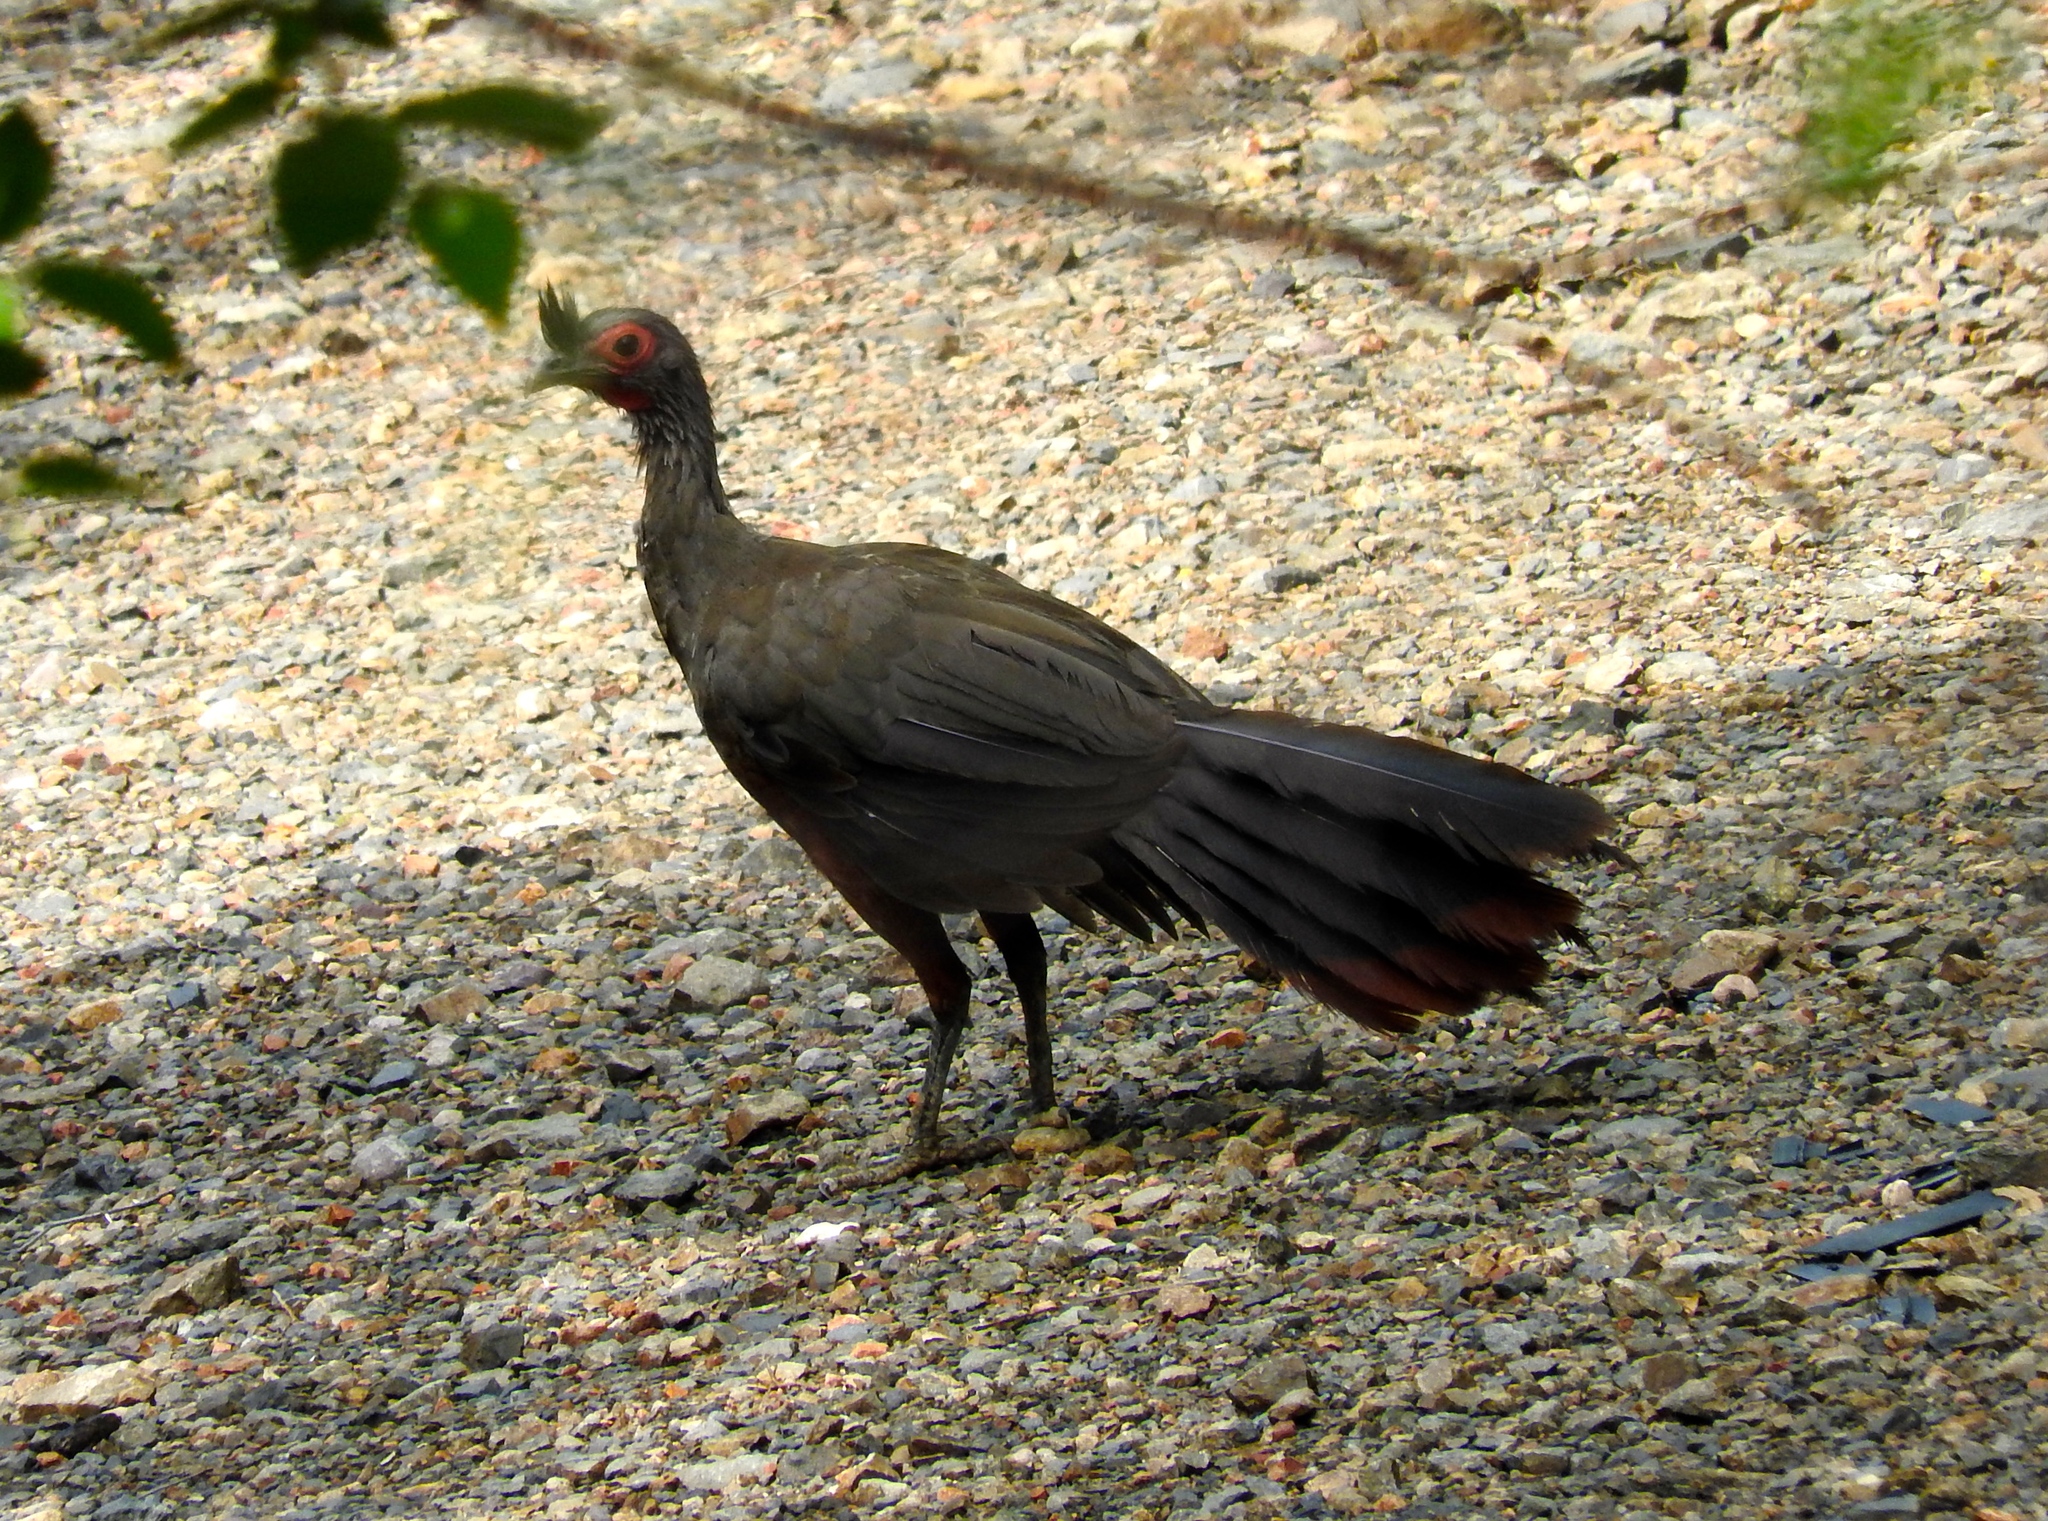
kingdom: Animalia
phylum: Chordata
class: Aves
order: Galliformes
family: Cracidae
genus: Ortalis
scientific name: Ortalis wagleri
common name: Rufous-bellied chachalaca
